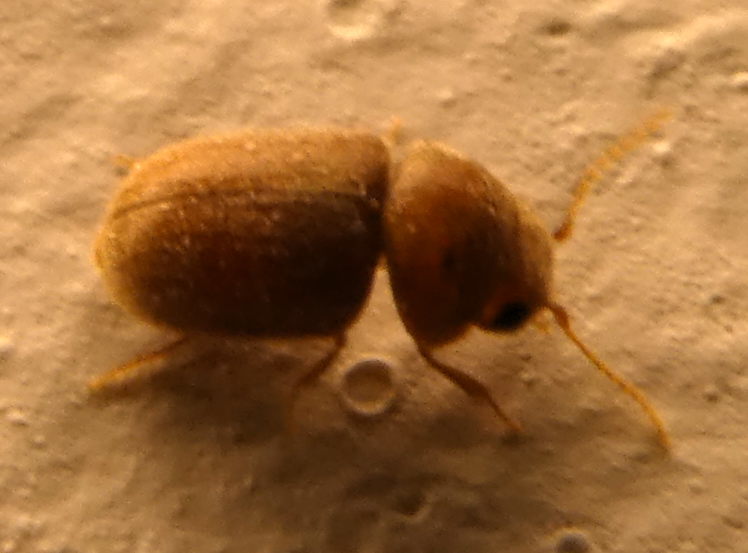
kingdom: Animalia
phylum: Arthropoda
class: Insecta
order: Coleoptera
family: Anobiidae
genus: Lasioderma
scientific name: Lasioderma serricorne
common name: Cigarette beetle
